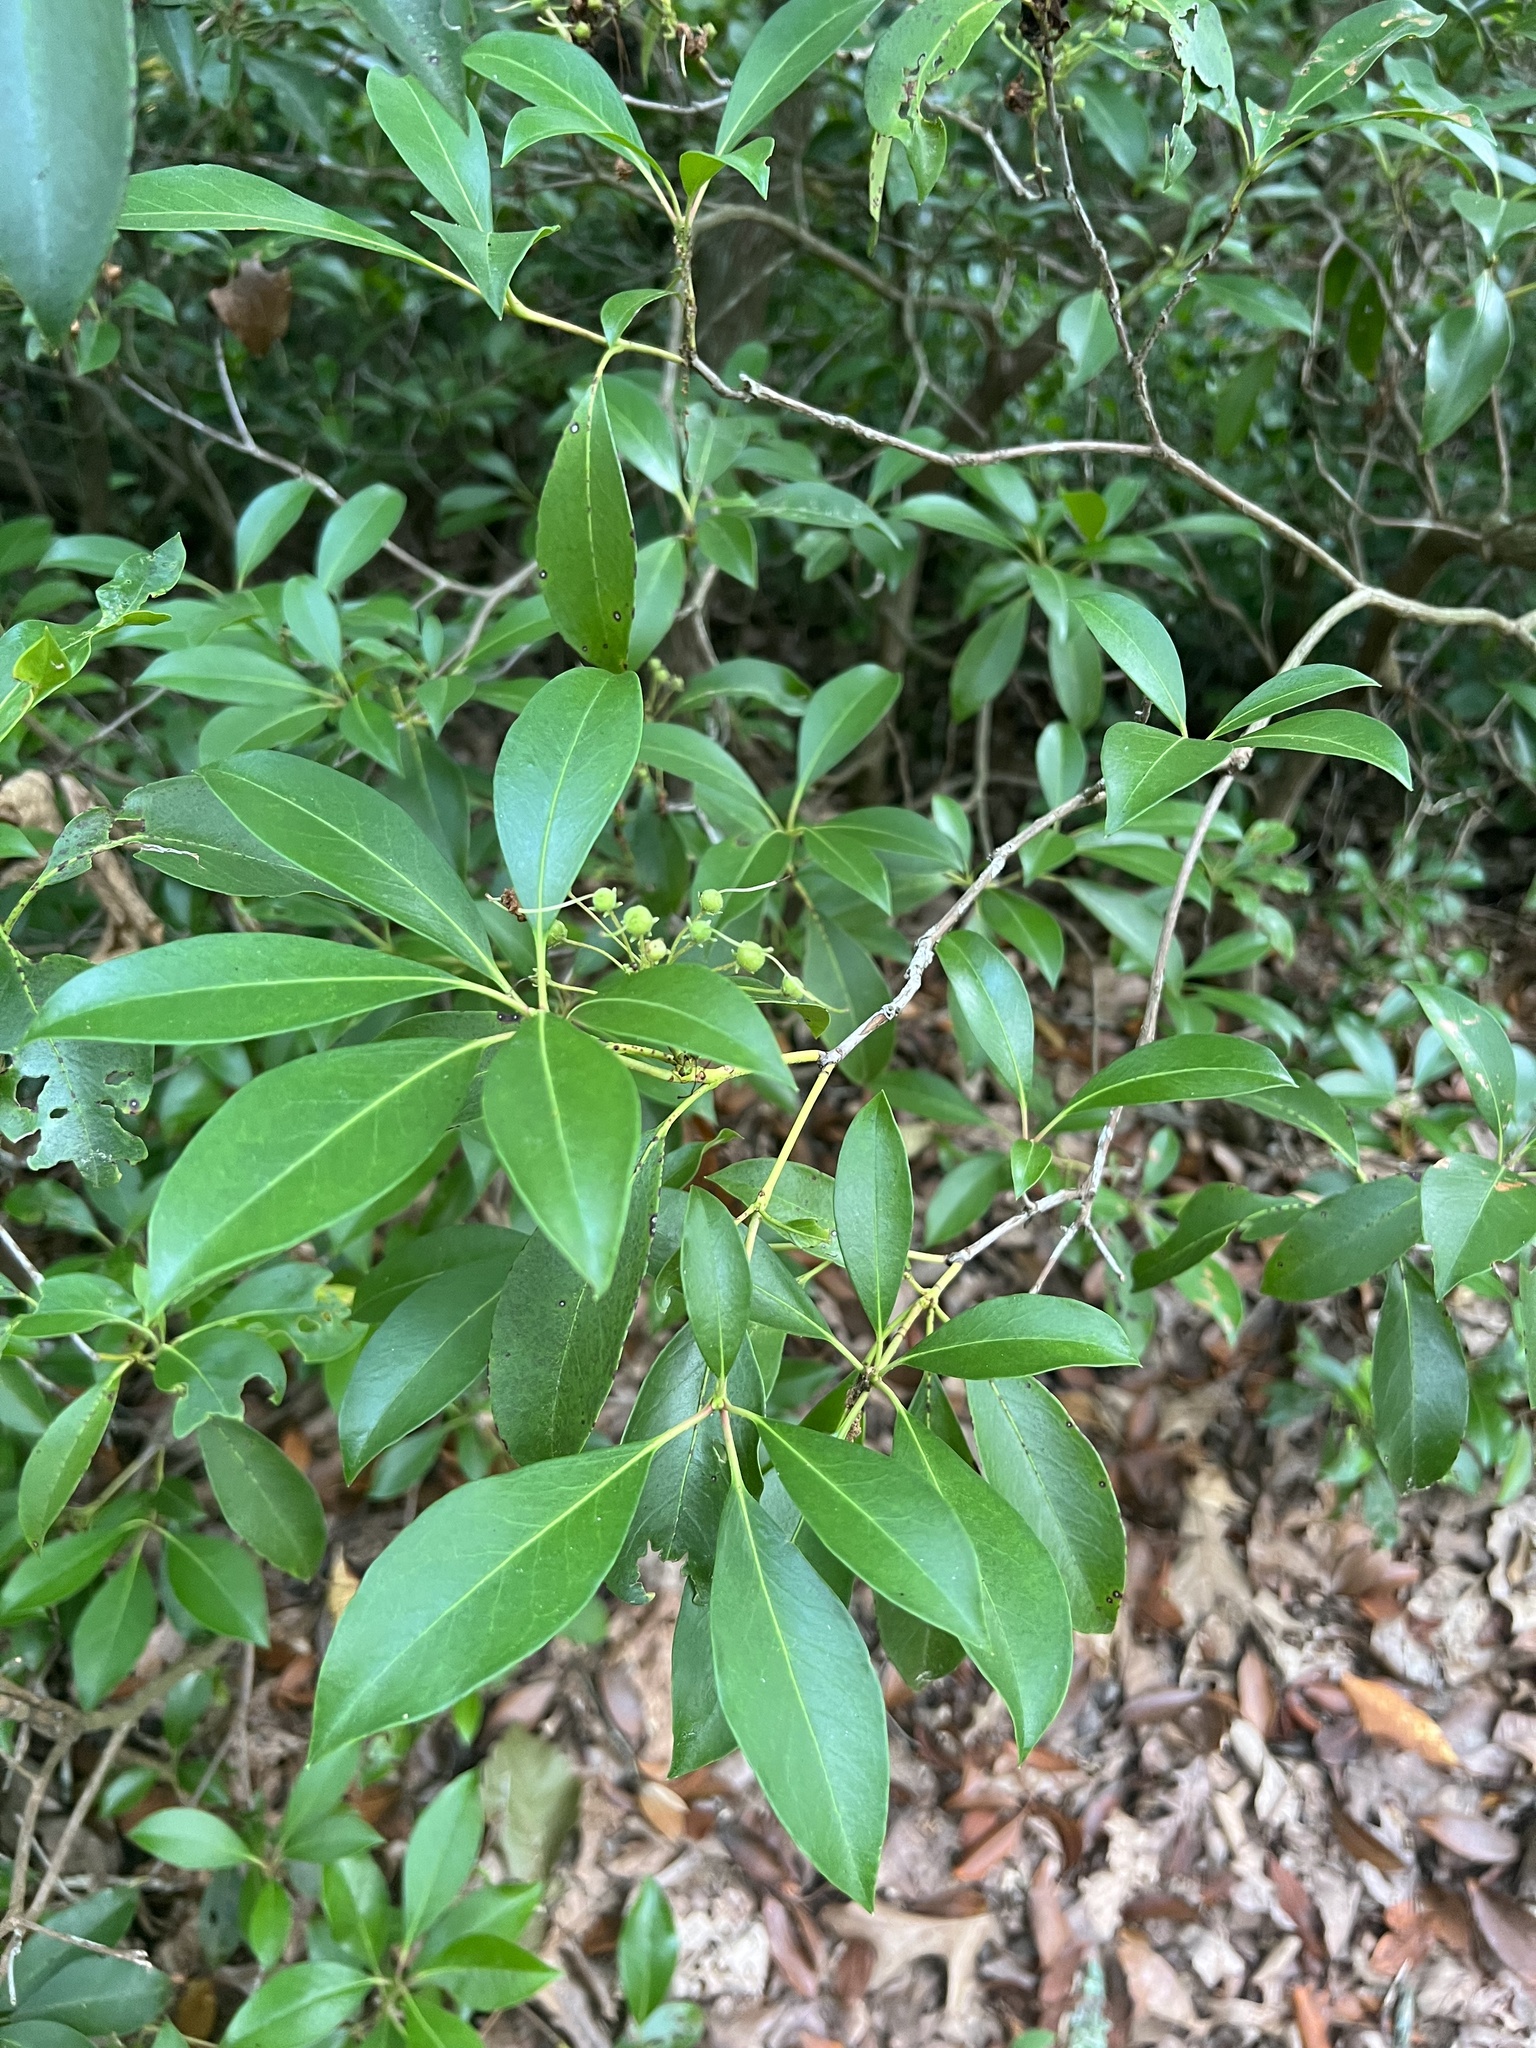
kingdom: Plantae
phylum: Tracheophyta
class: Magnoliopsida
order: Ericales
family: Ericaceae
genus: Kalmia
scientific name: Kalmia latifolia
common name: Mountain-laurel
